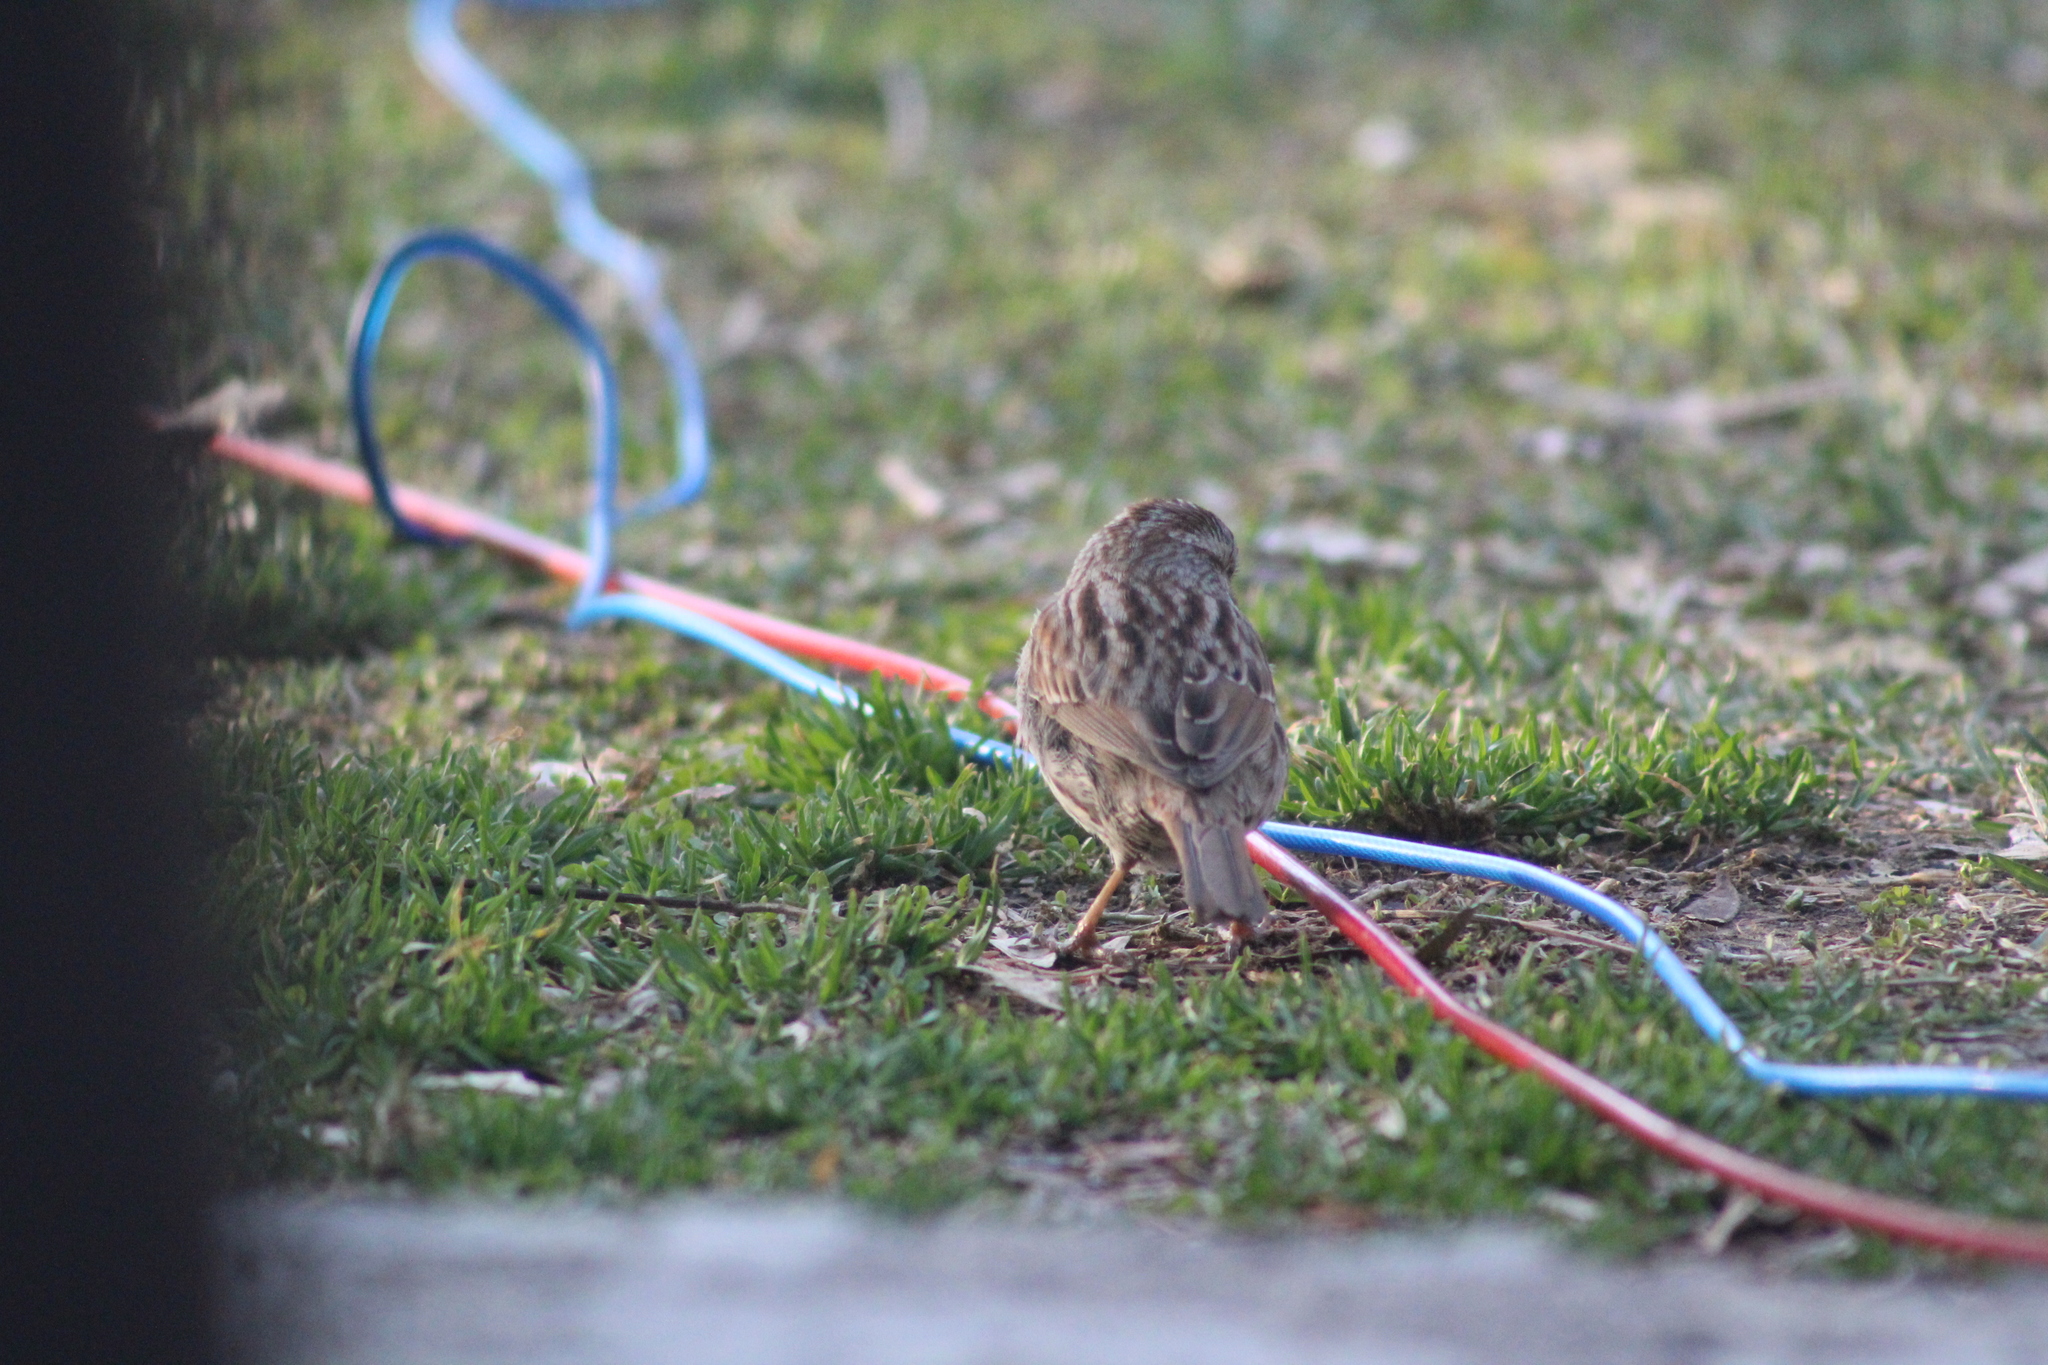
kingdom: Animalia
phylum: Chordata
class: Aves
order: Passeriformes
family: Passerellidae
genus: Melospiza
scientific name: Melospiza melodia
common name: Song sparrow
